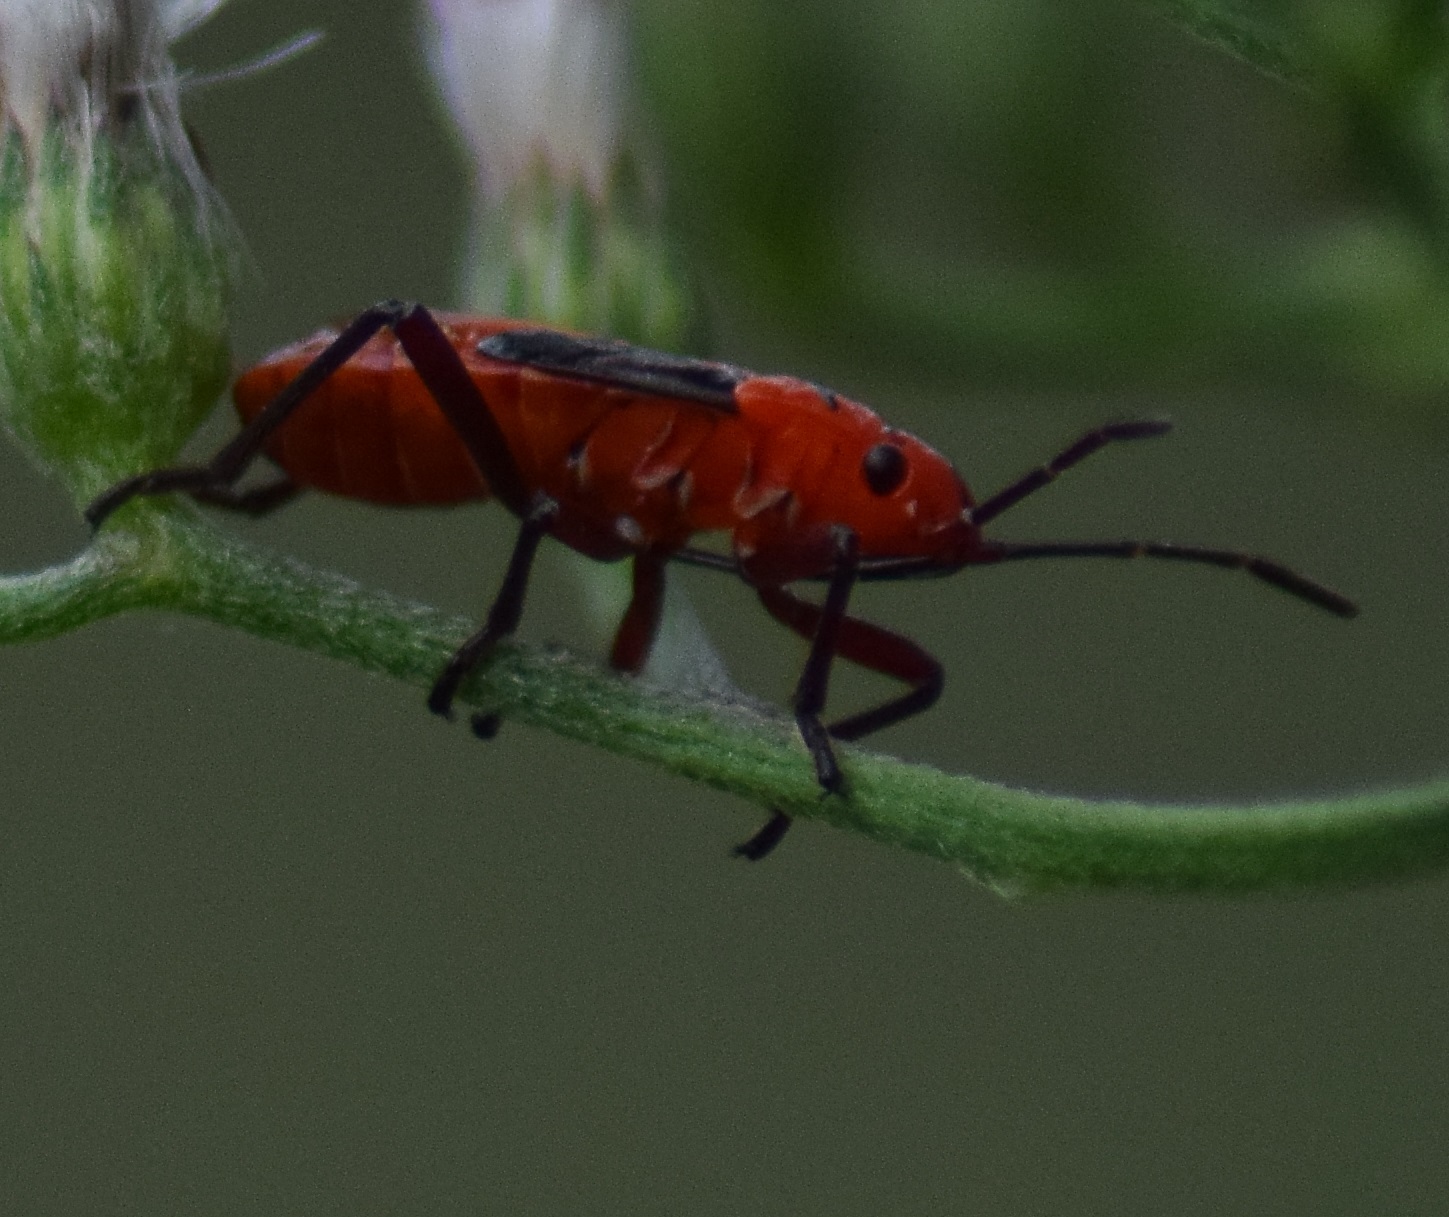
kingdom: Animalia
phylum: Arthropoda
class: Insecta
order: Hemiptera
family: Lygaeidae
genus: Spilostethus
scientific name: Spilostethus hospes
